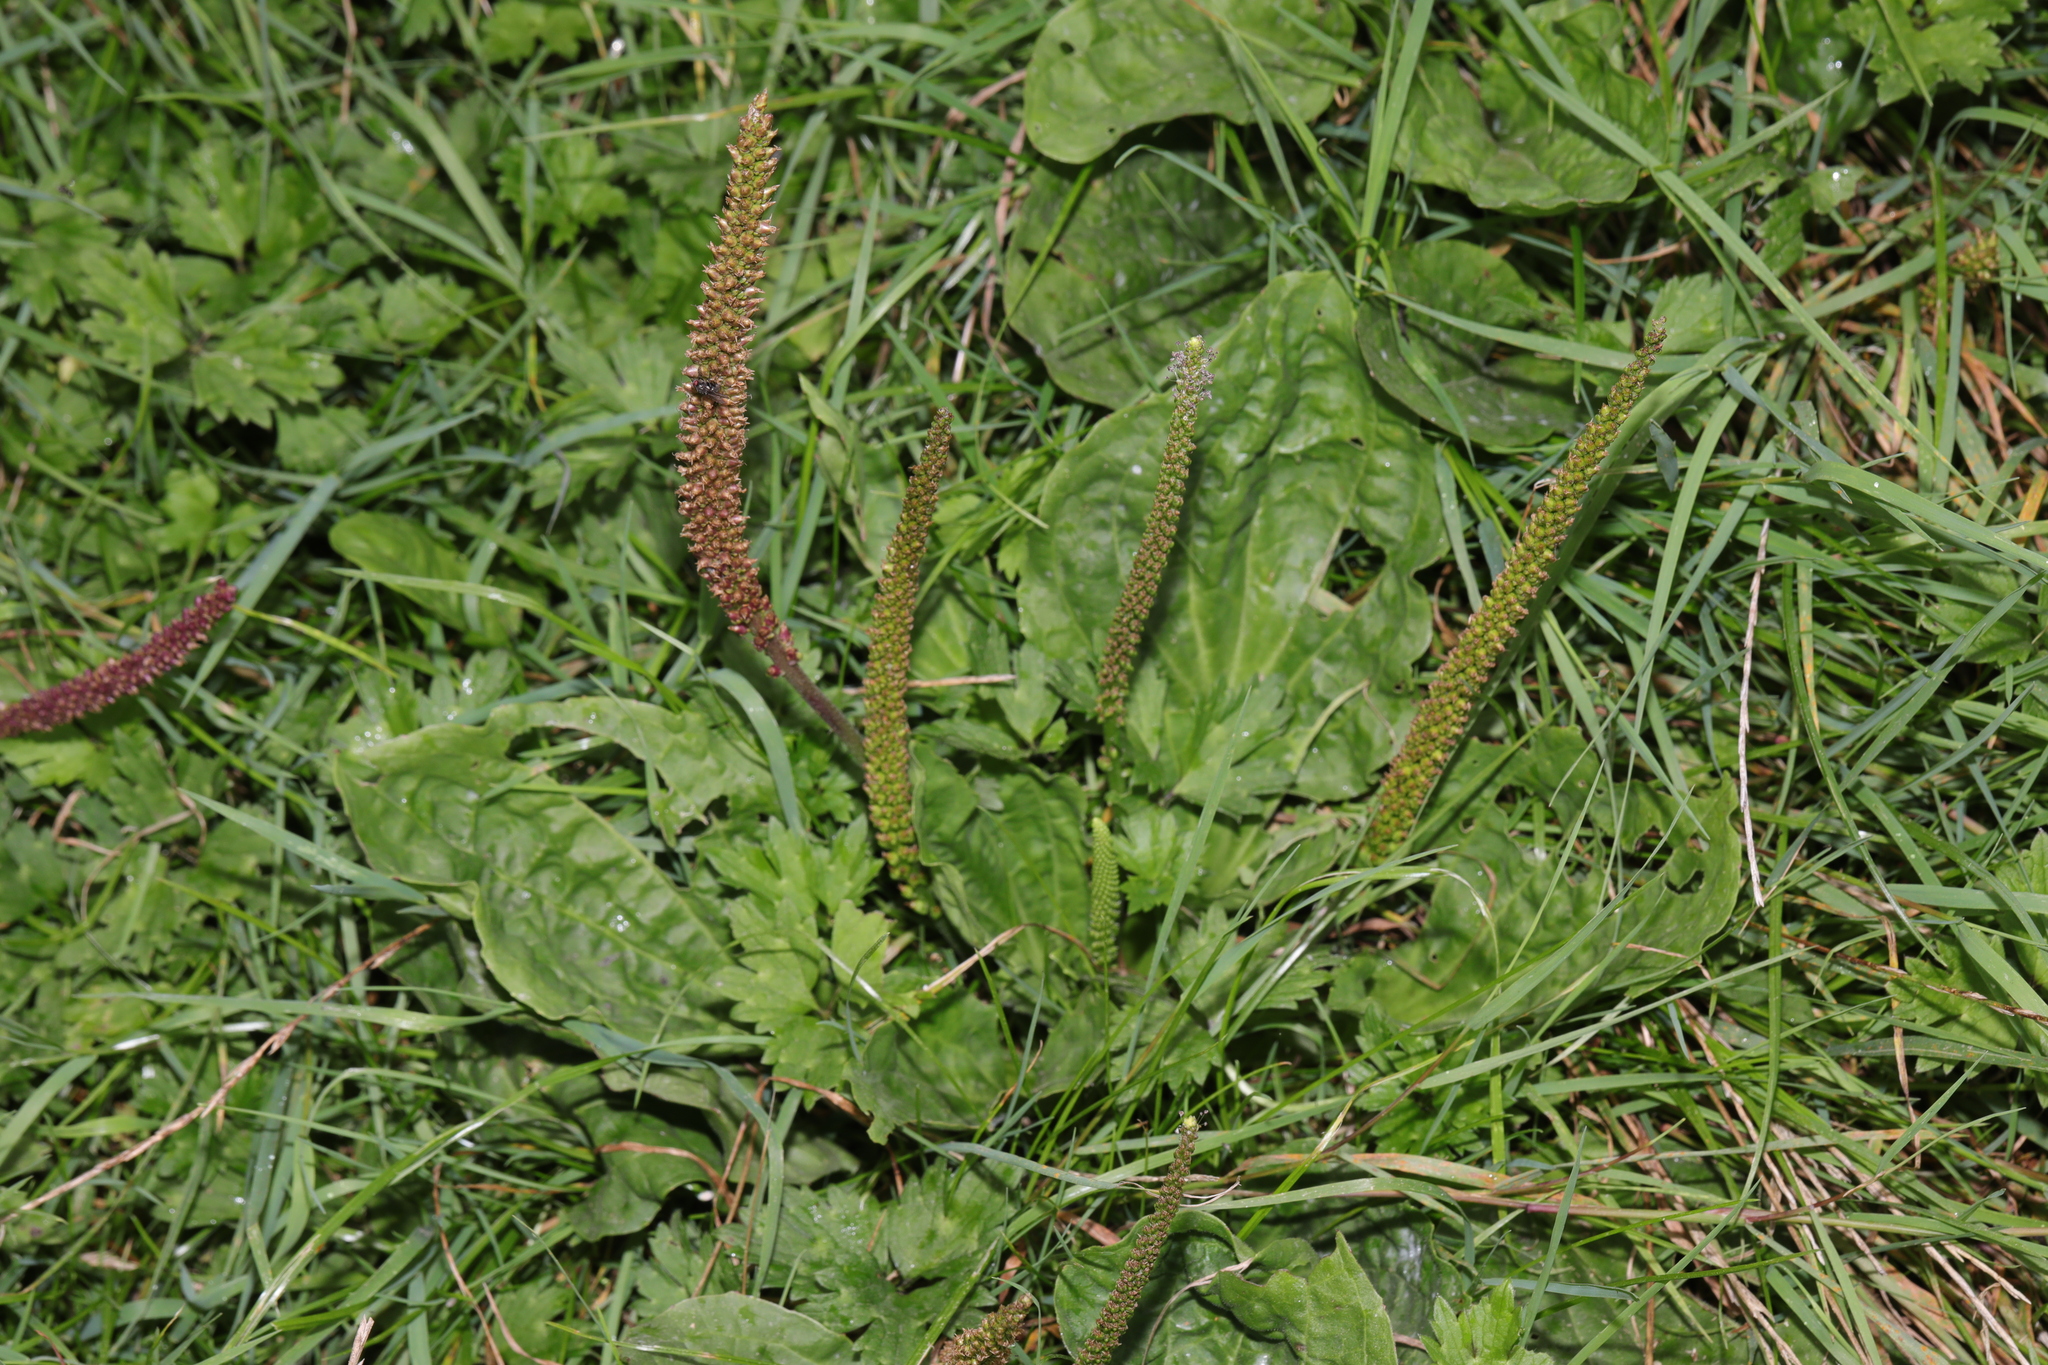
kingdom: Plantae
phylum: Tracheophyta
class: Magnoliopsida
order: Lamiales
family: Plantaginaceae
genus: Plantago
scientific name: Plantago major
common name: Common plantain
